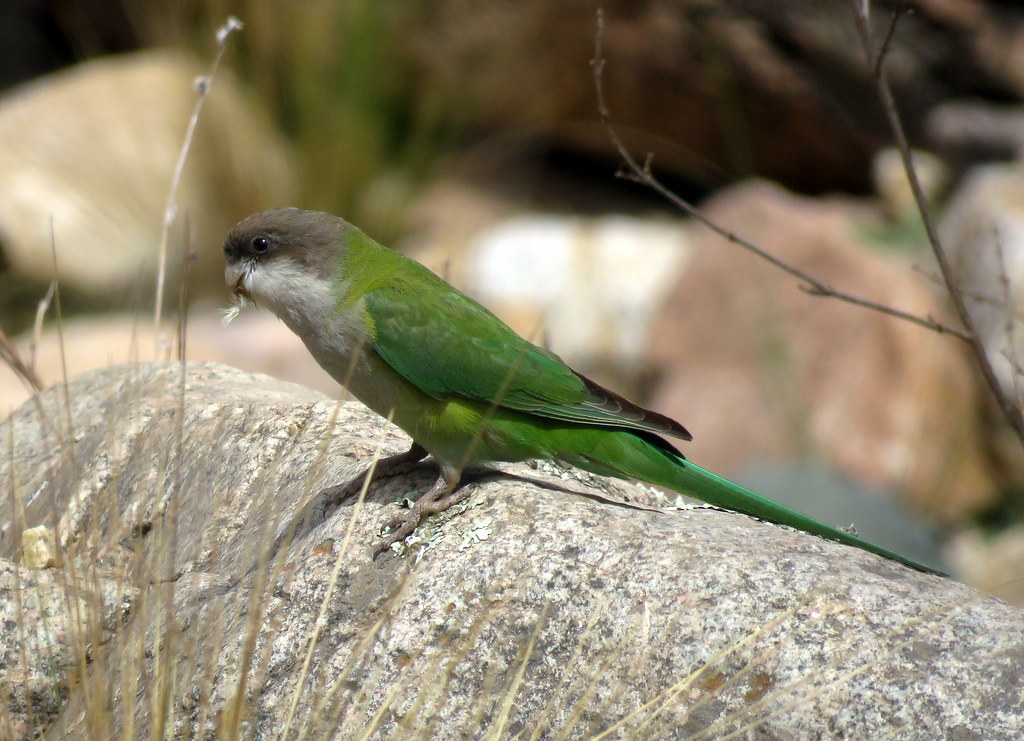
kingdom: Animalia
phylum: Chordata
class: Aves
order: Psittaciformes
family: Psittacidae
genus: Psilopsiagon
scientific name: Psilopsiagon aymara
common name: Grey-hooded parakeet
